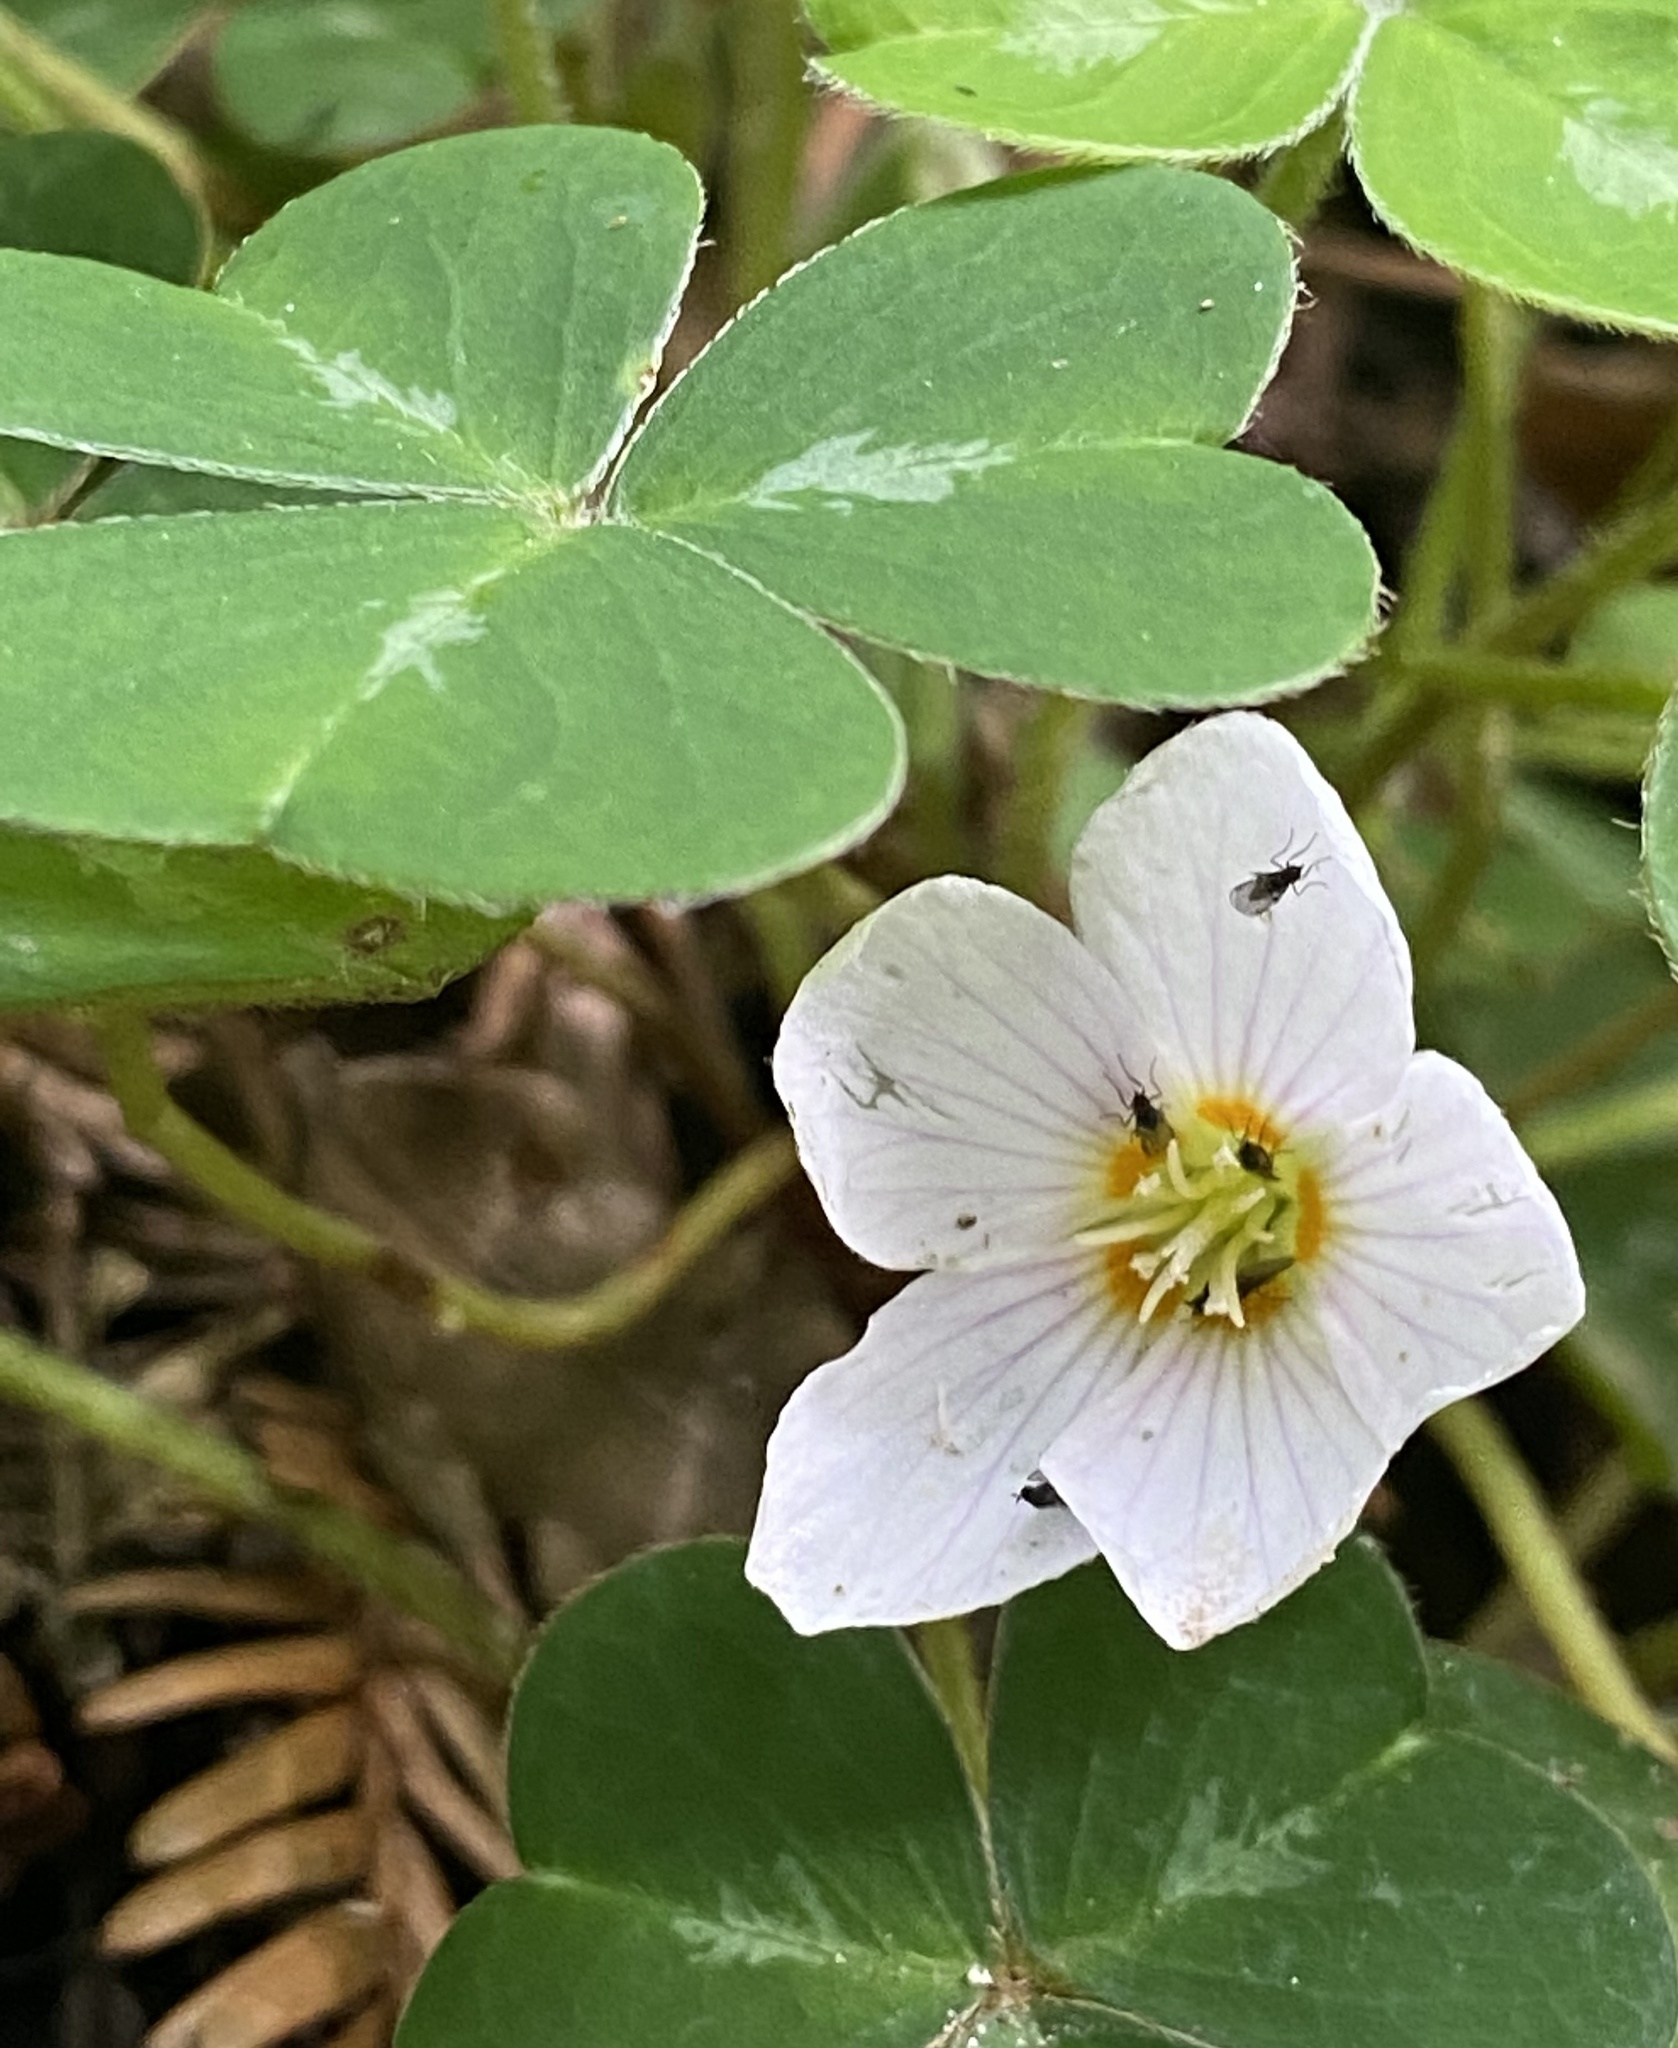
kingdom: Plantae
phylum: Tracheophyta
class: Magnoliopsida
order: Oxalidales
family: Oxalidaceae
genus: Oxalis
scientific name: Oxalis oregana
